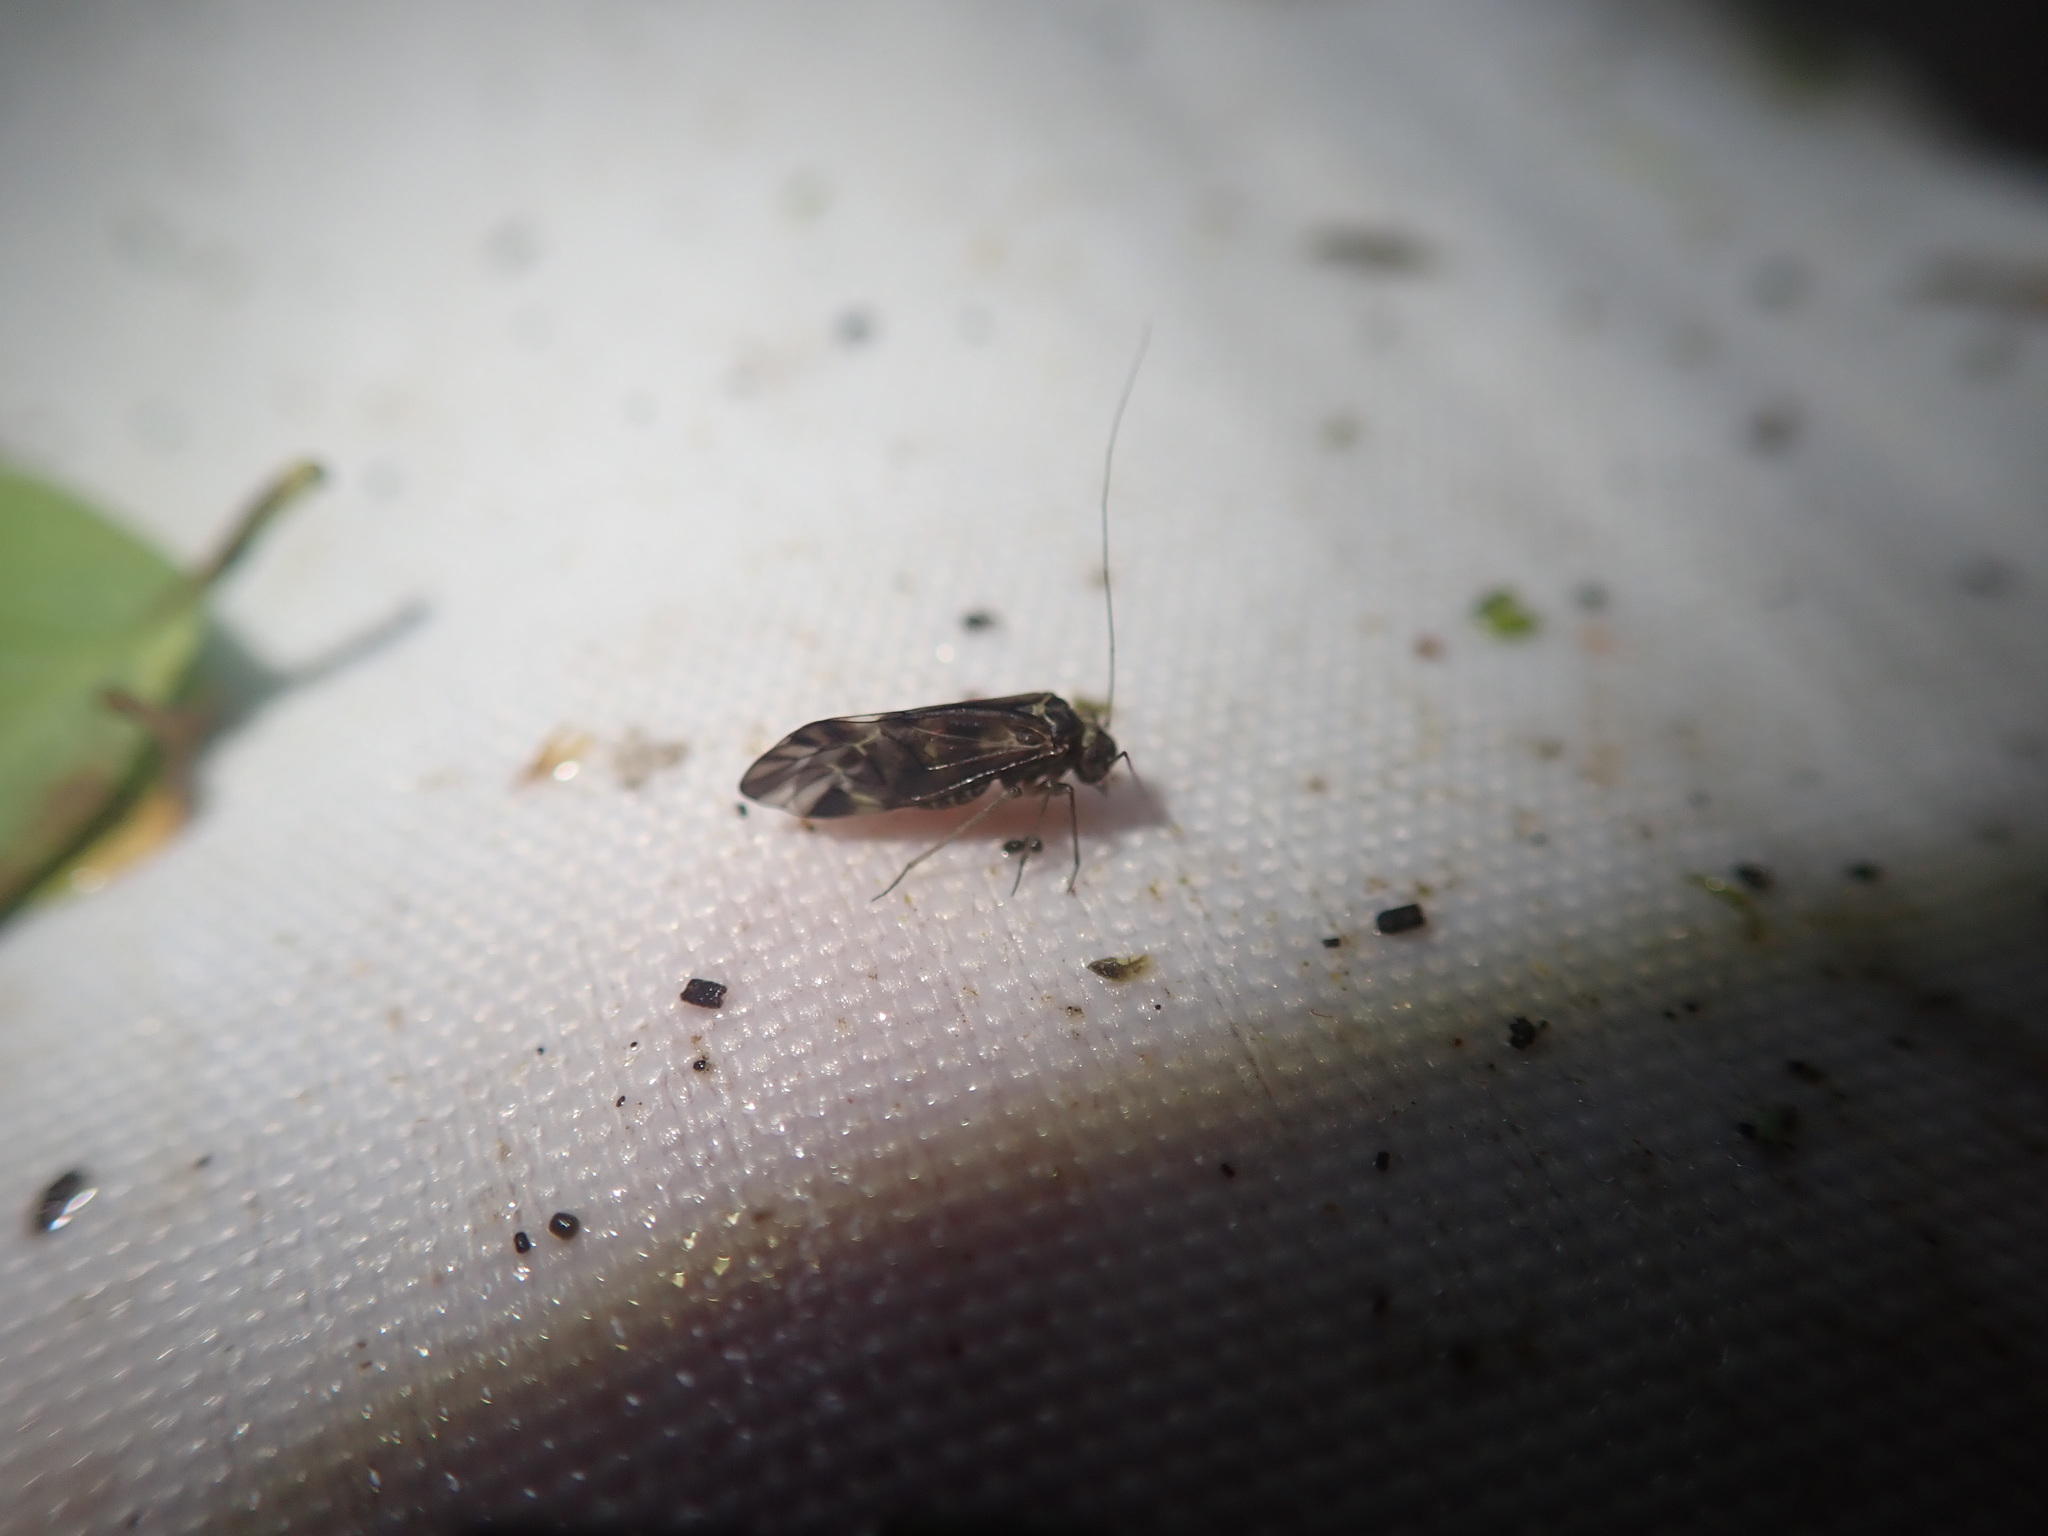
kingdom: Animalia
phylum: Arthropoda
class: Insecta
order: Psocodea
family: Psocidae
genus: Metylophorus
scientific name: Metylophorus nebulosus
